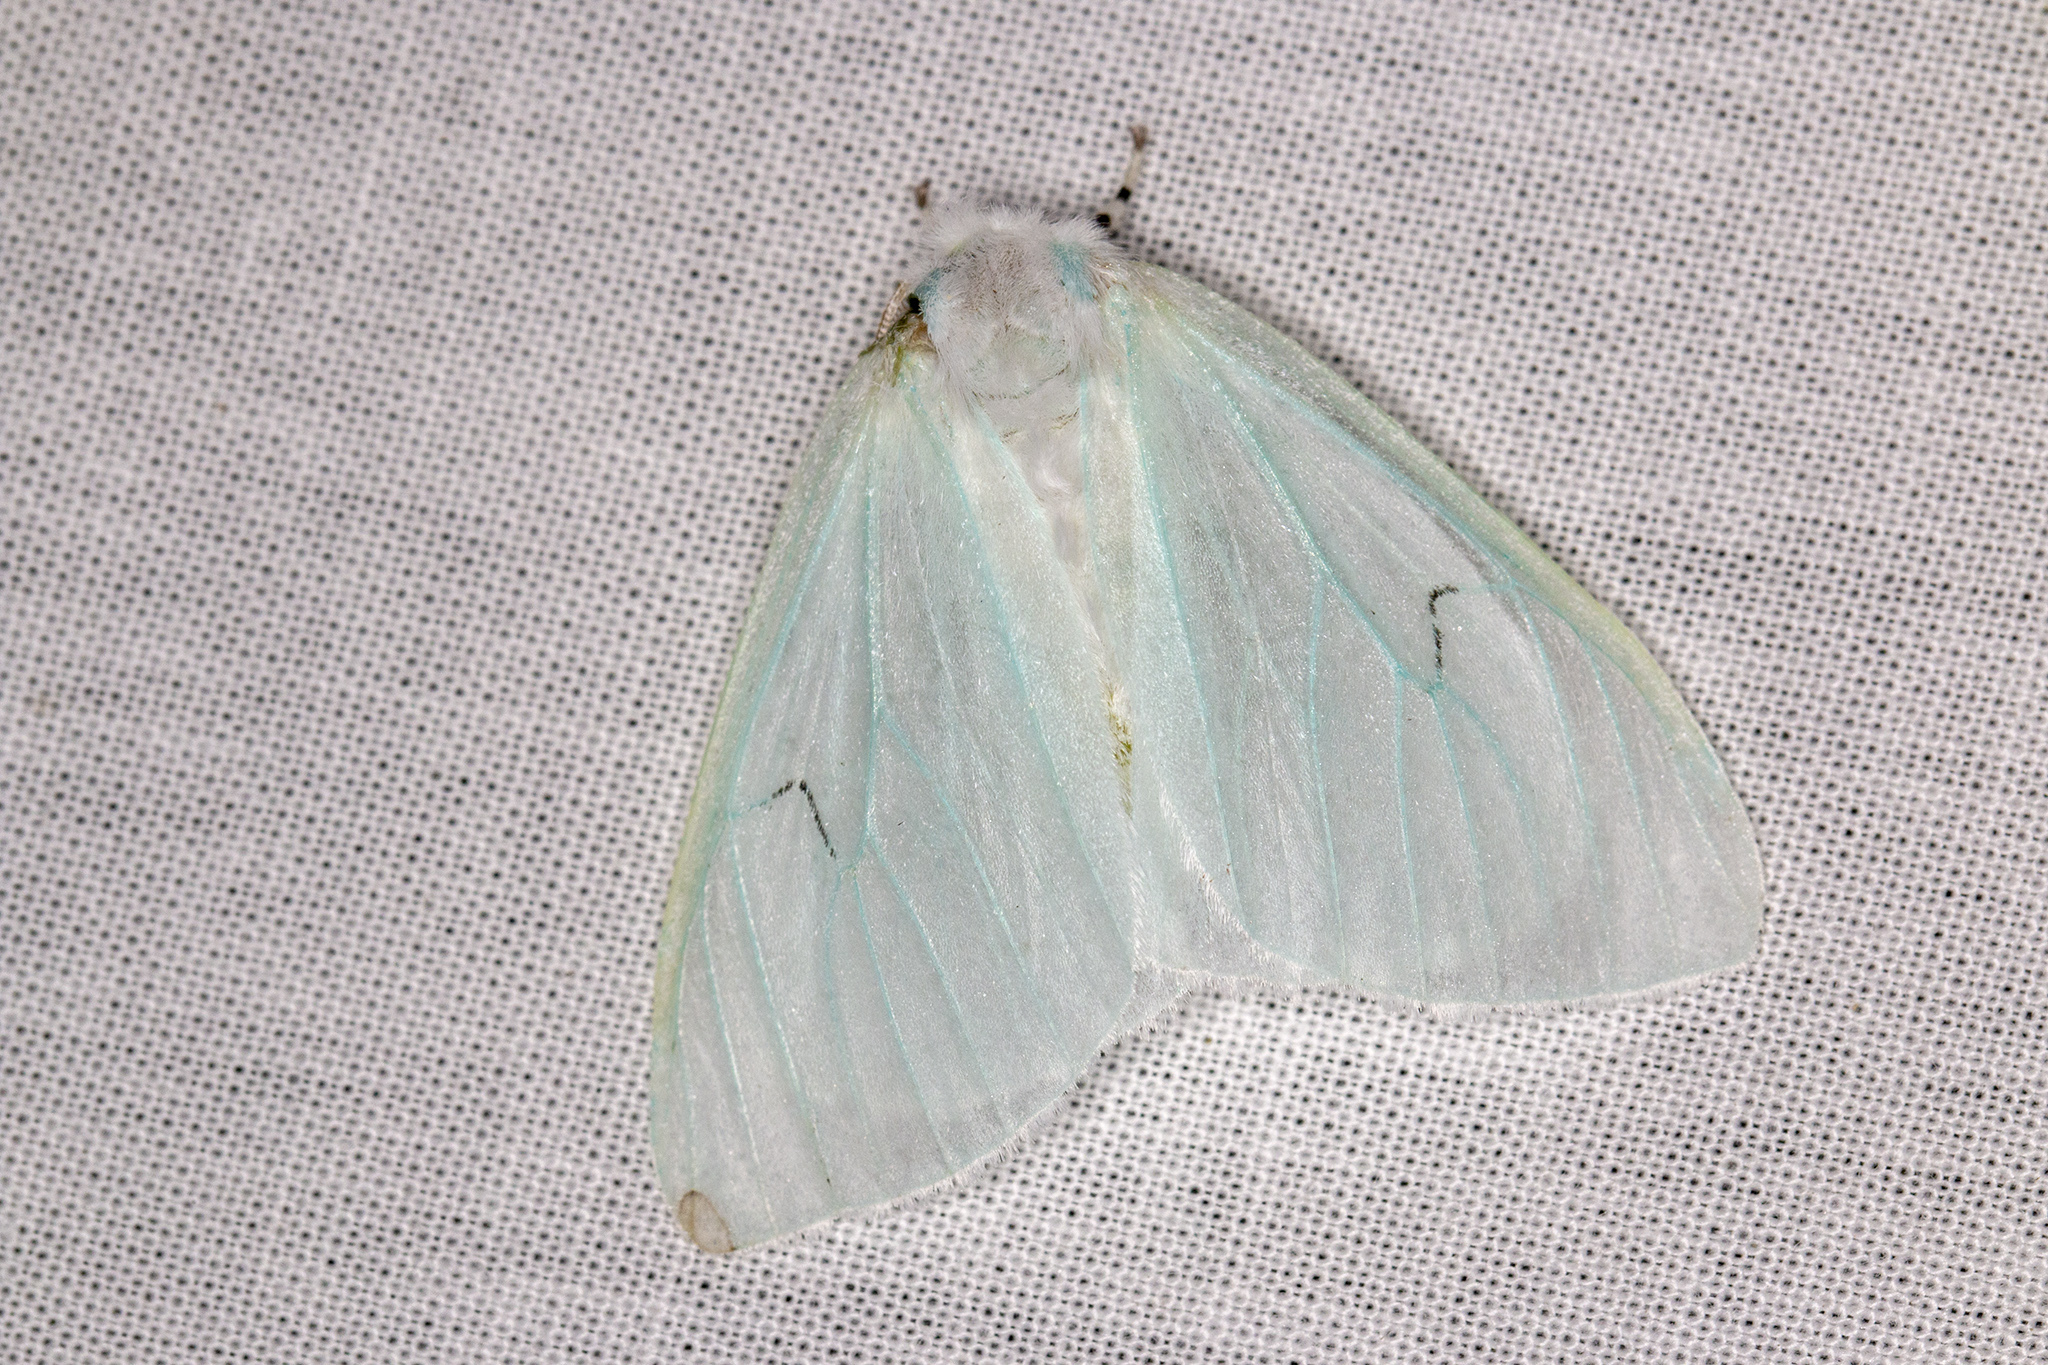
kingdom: Animalia
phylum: Arthropoda
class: Insecta
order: Lepidoptera
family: Erebidae
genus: Arctornis
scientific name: Arctornis l-nigrum
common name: Black v moth
